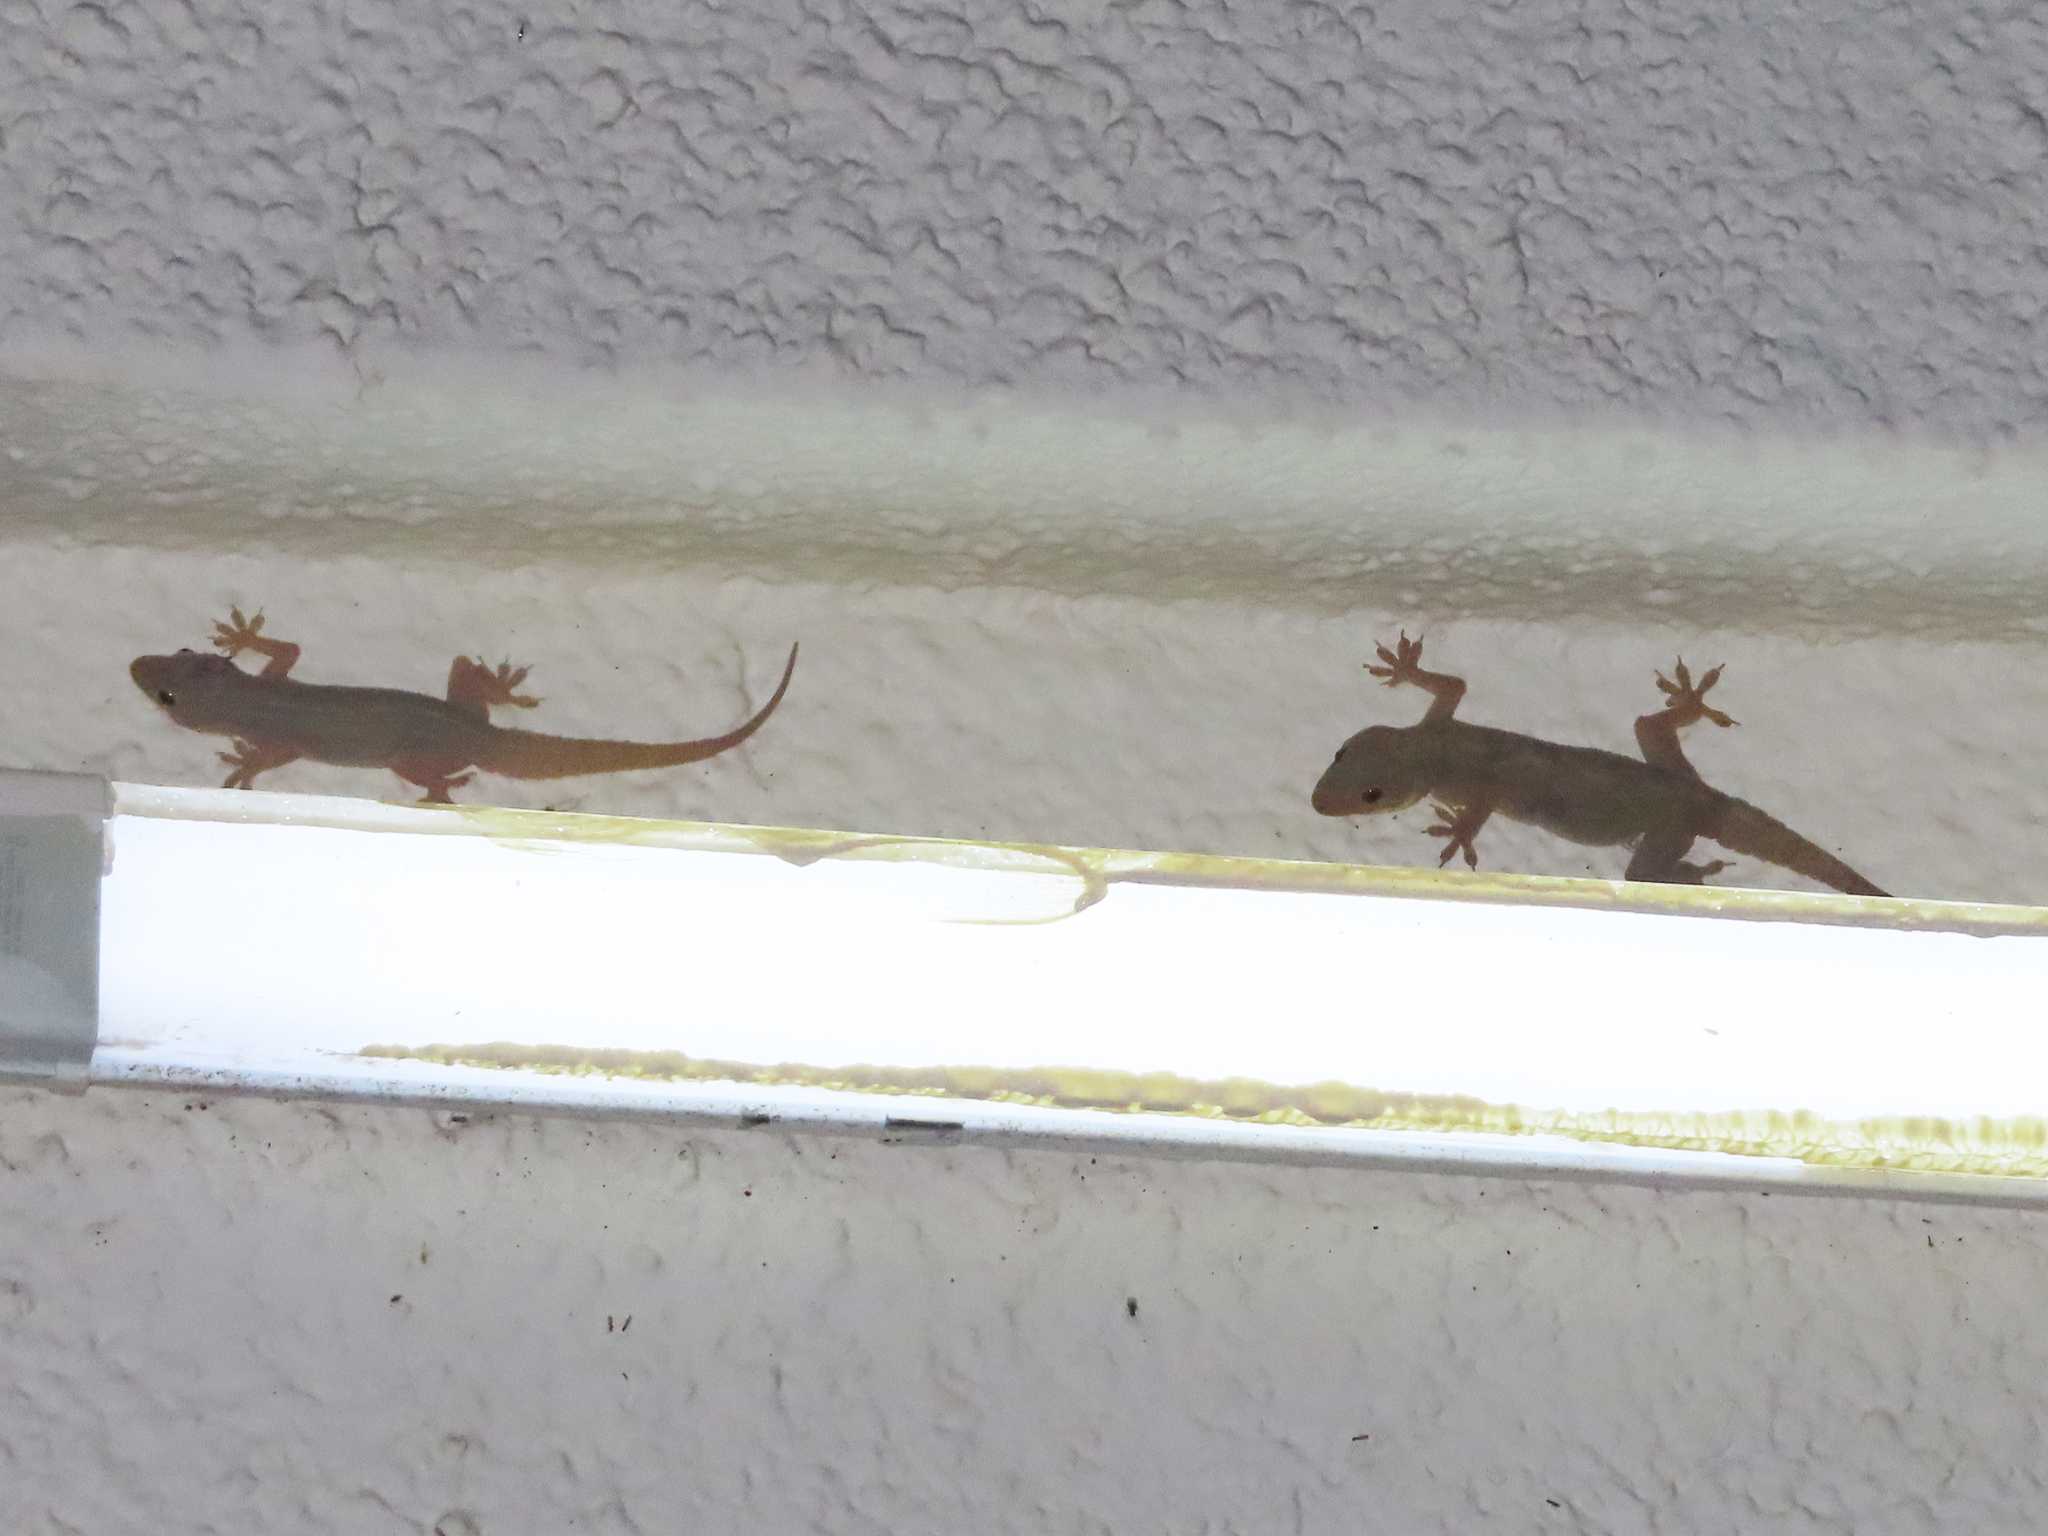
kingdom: Animalia
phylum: Chordata
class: Squamata
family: Gekkonidae
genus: Hemidactylus
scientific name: Hemidactylus flaviviridis
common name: Northern house gecko
